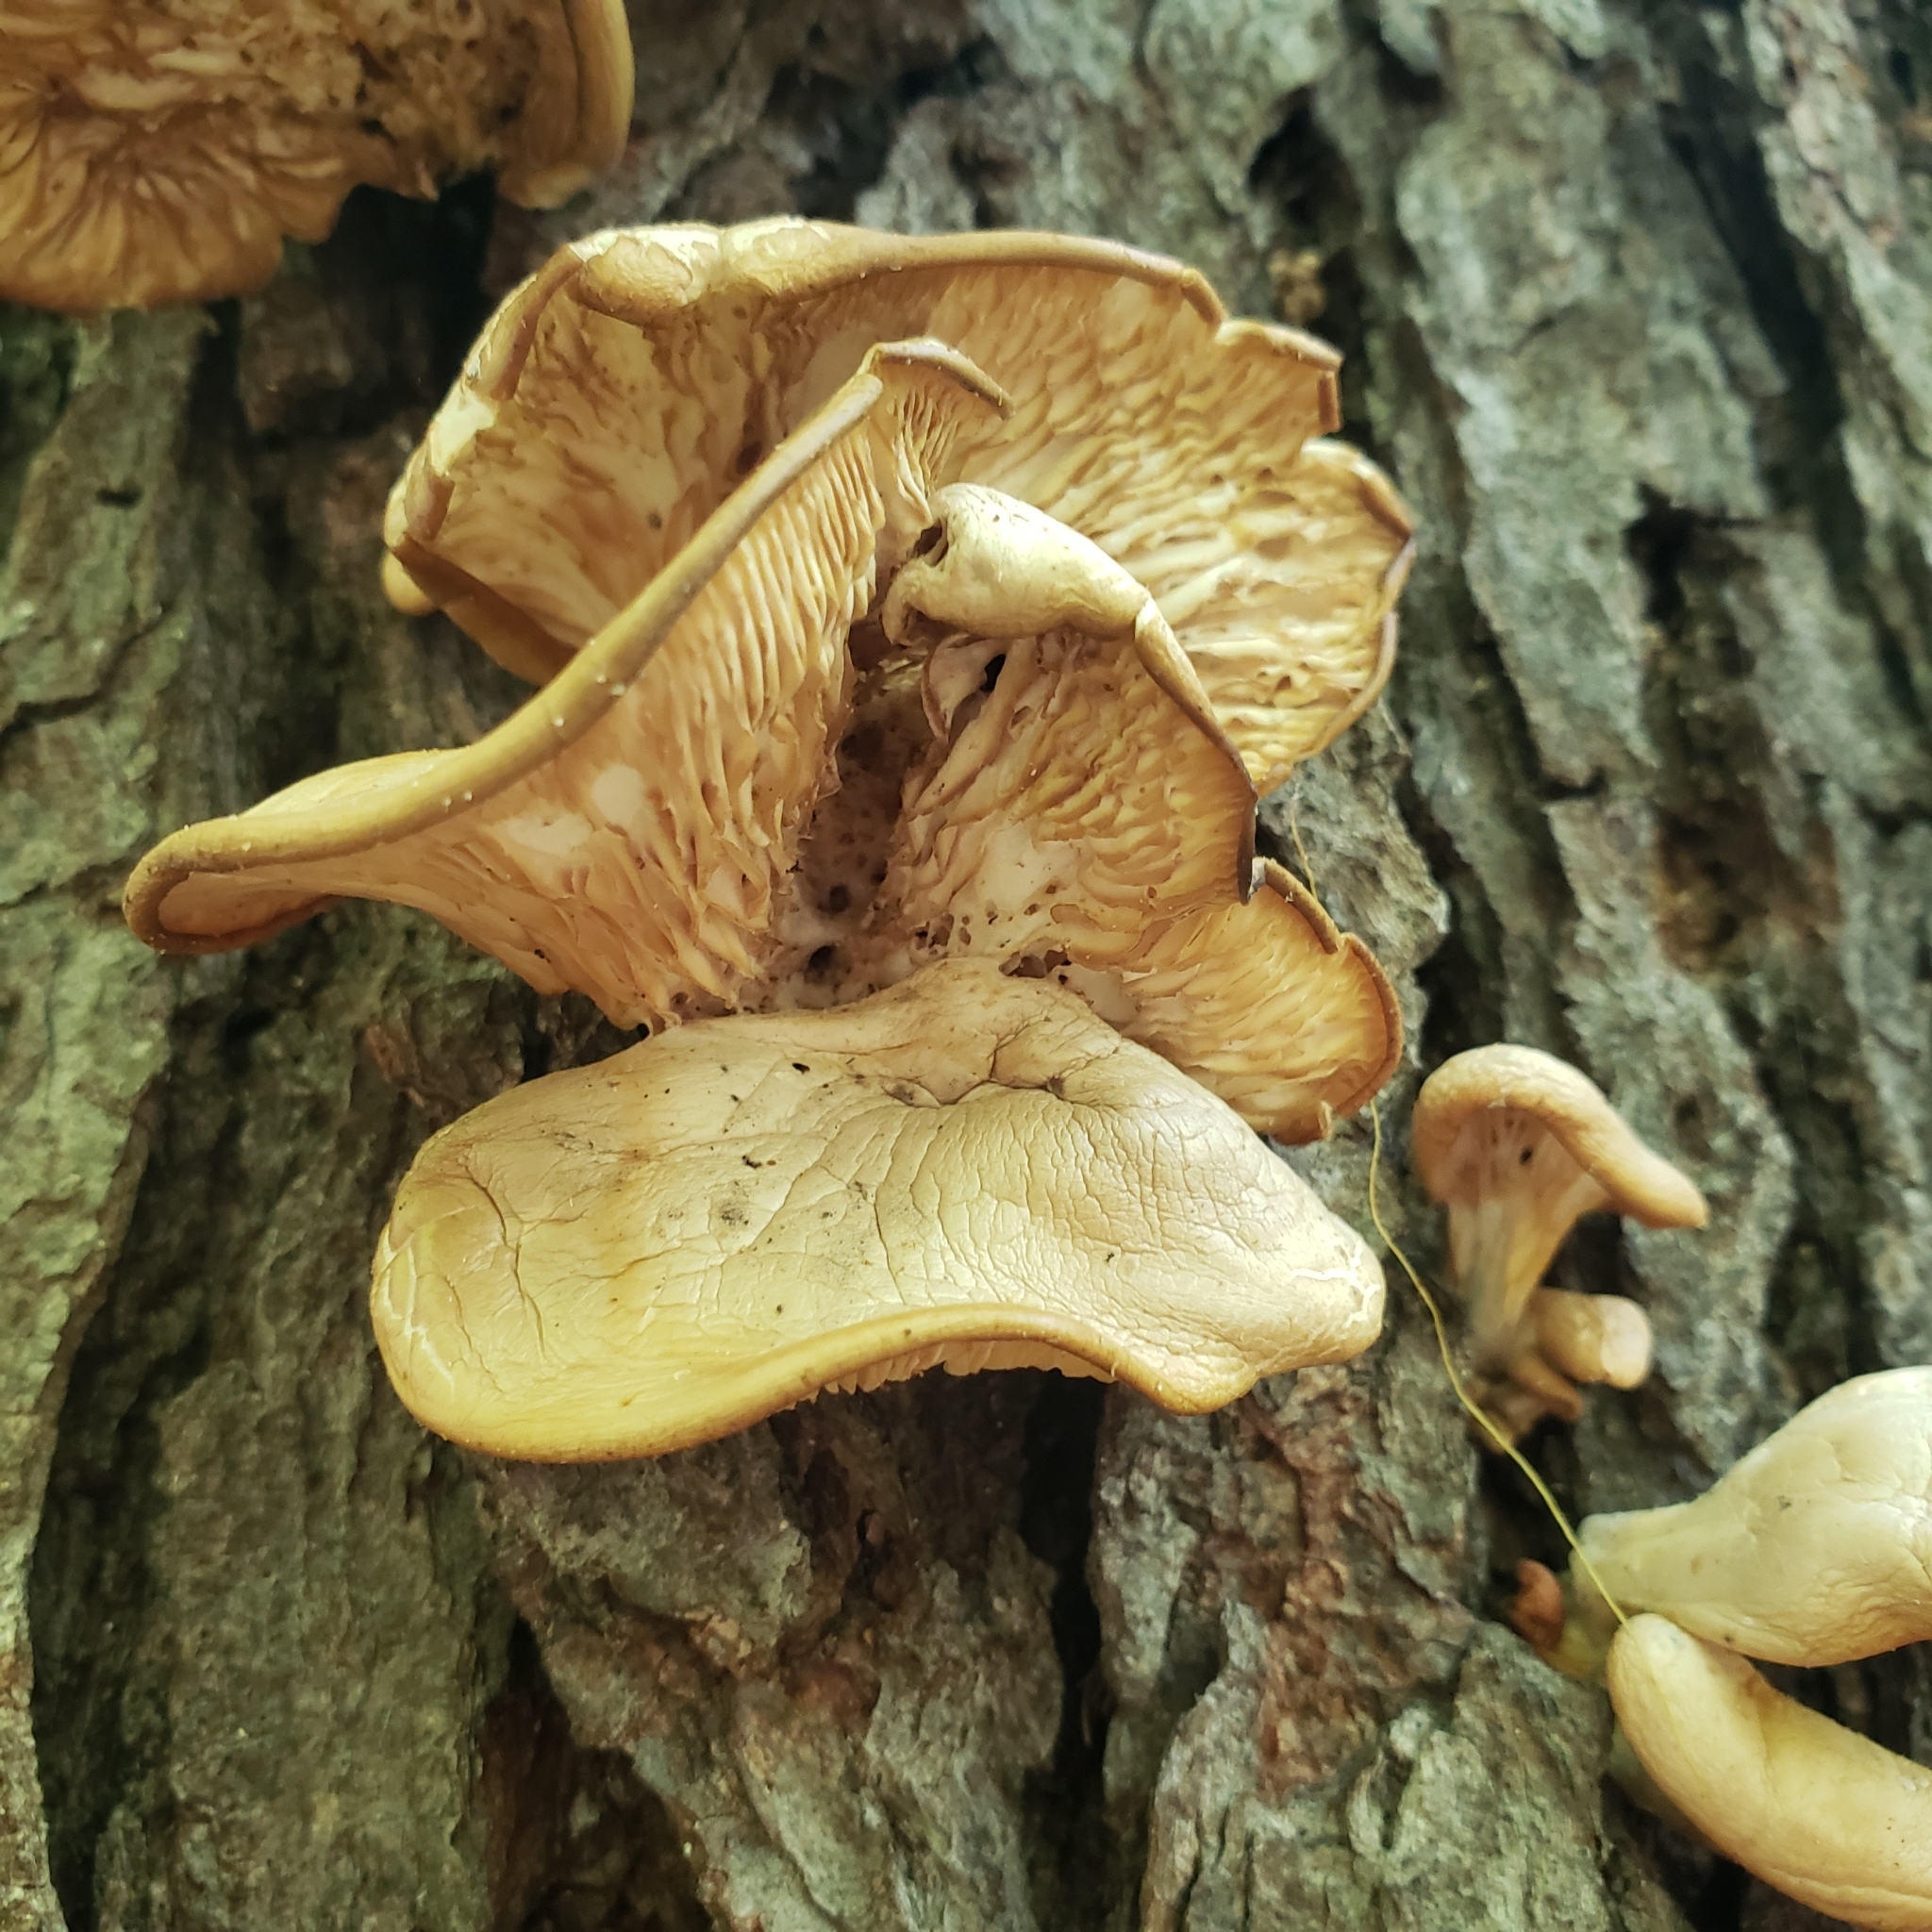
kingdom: Fungi
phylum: Basidiomycota
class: Agaricomycetes
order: Agaricales
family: Pleurotaceae
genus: Pleurotus
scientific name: Pleurotus ostreatus
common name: Oyster mushroom
